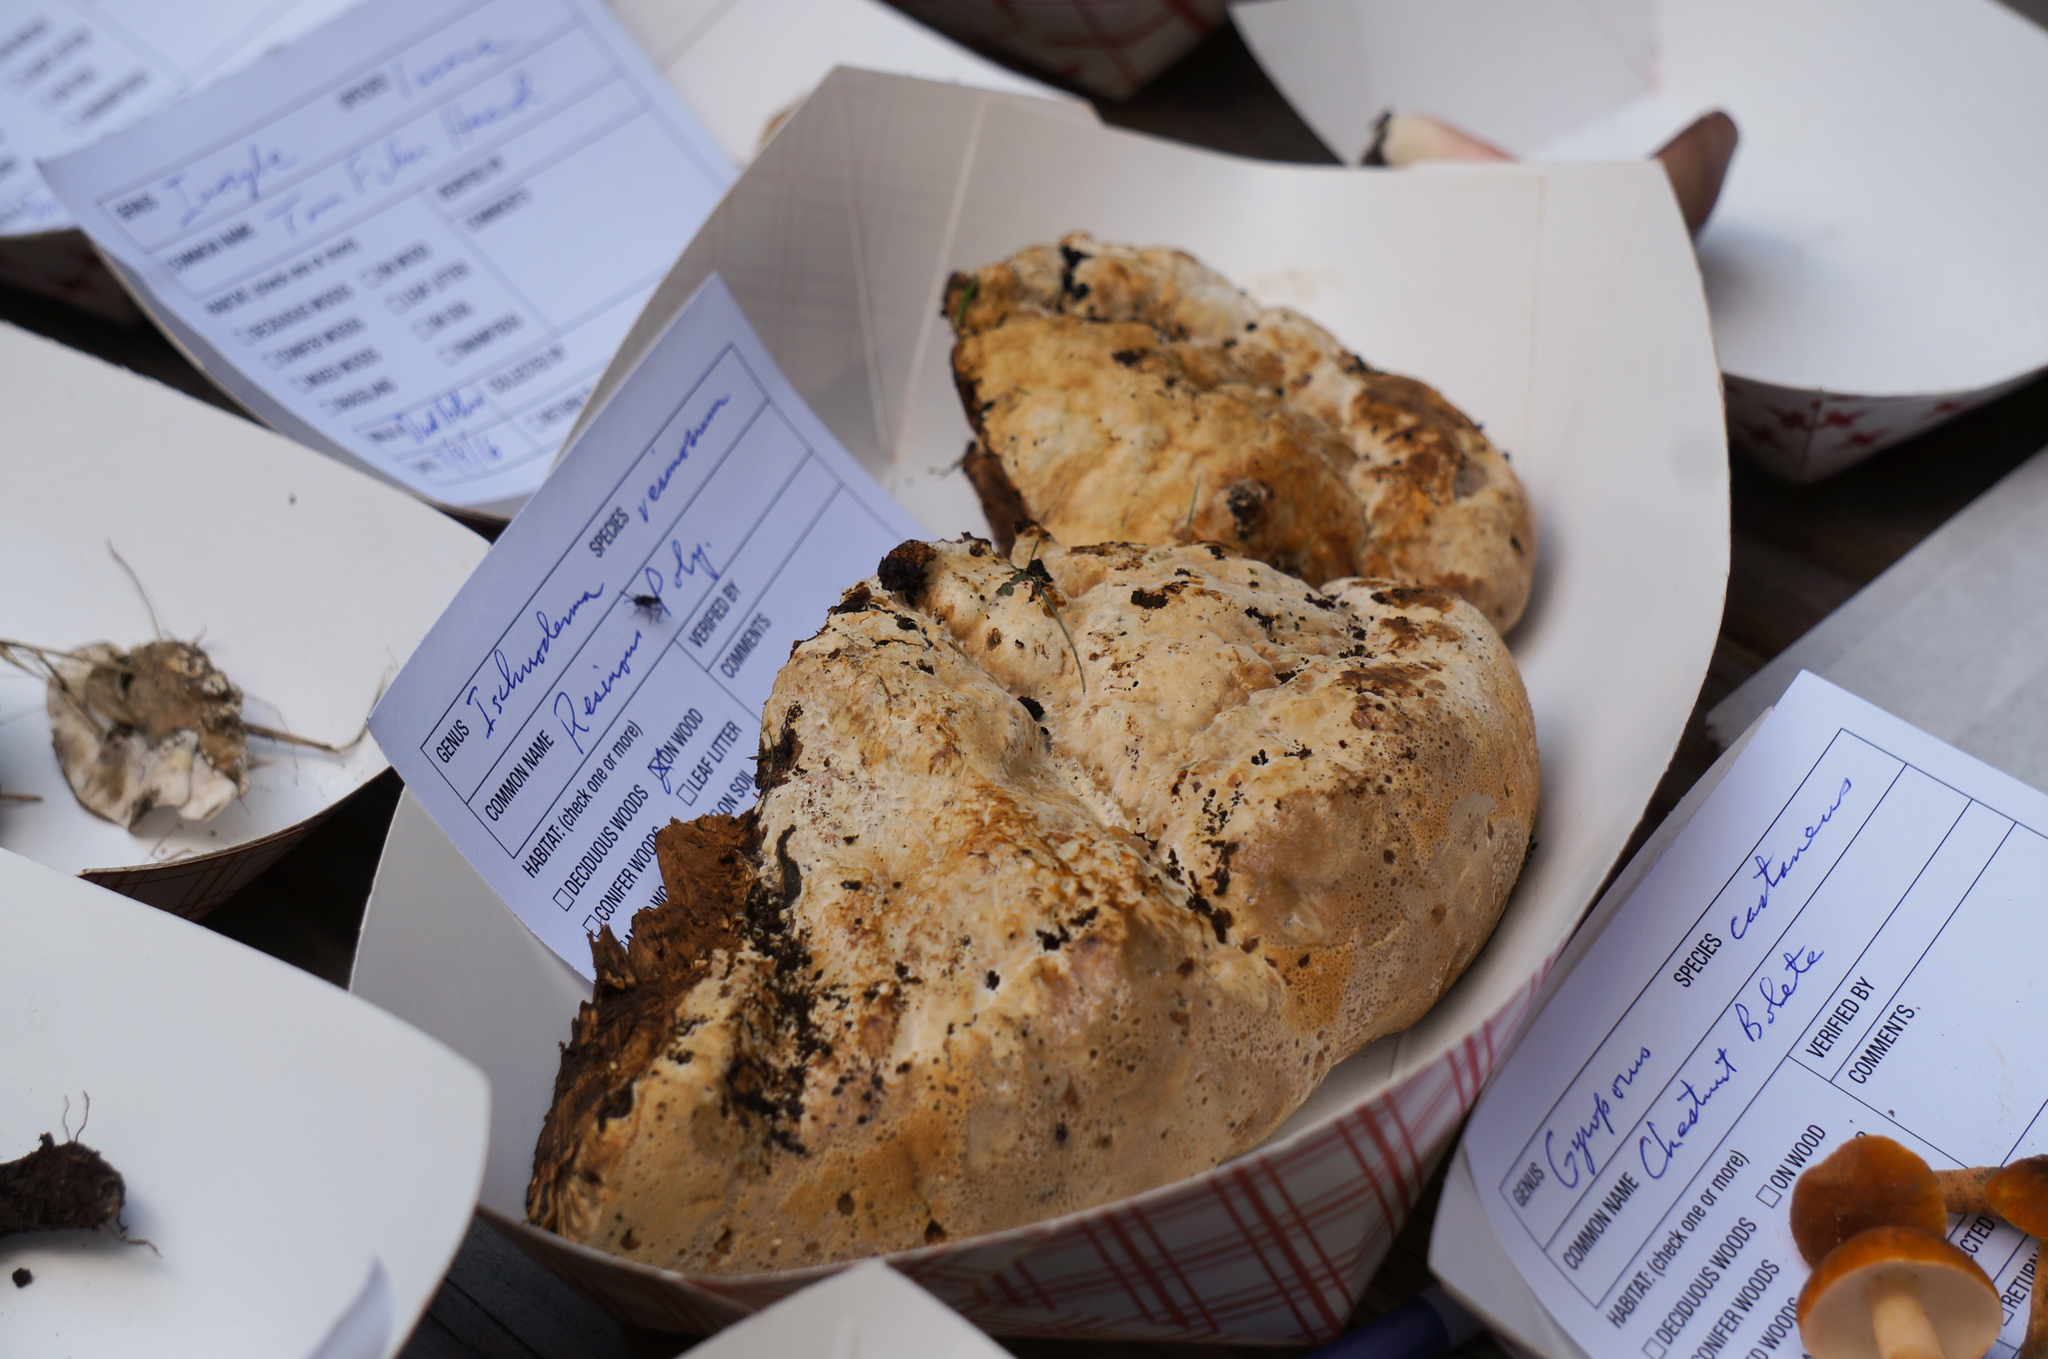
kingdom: Fungi
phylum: Basidiomycota
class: Agaricomycetes
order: Hymenochaetales
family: Hymenochaetaceae
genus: Pseudoinonotus
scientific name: Pseudoinonotus dryadeus
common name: Oak bracket
